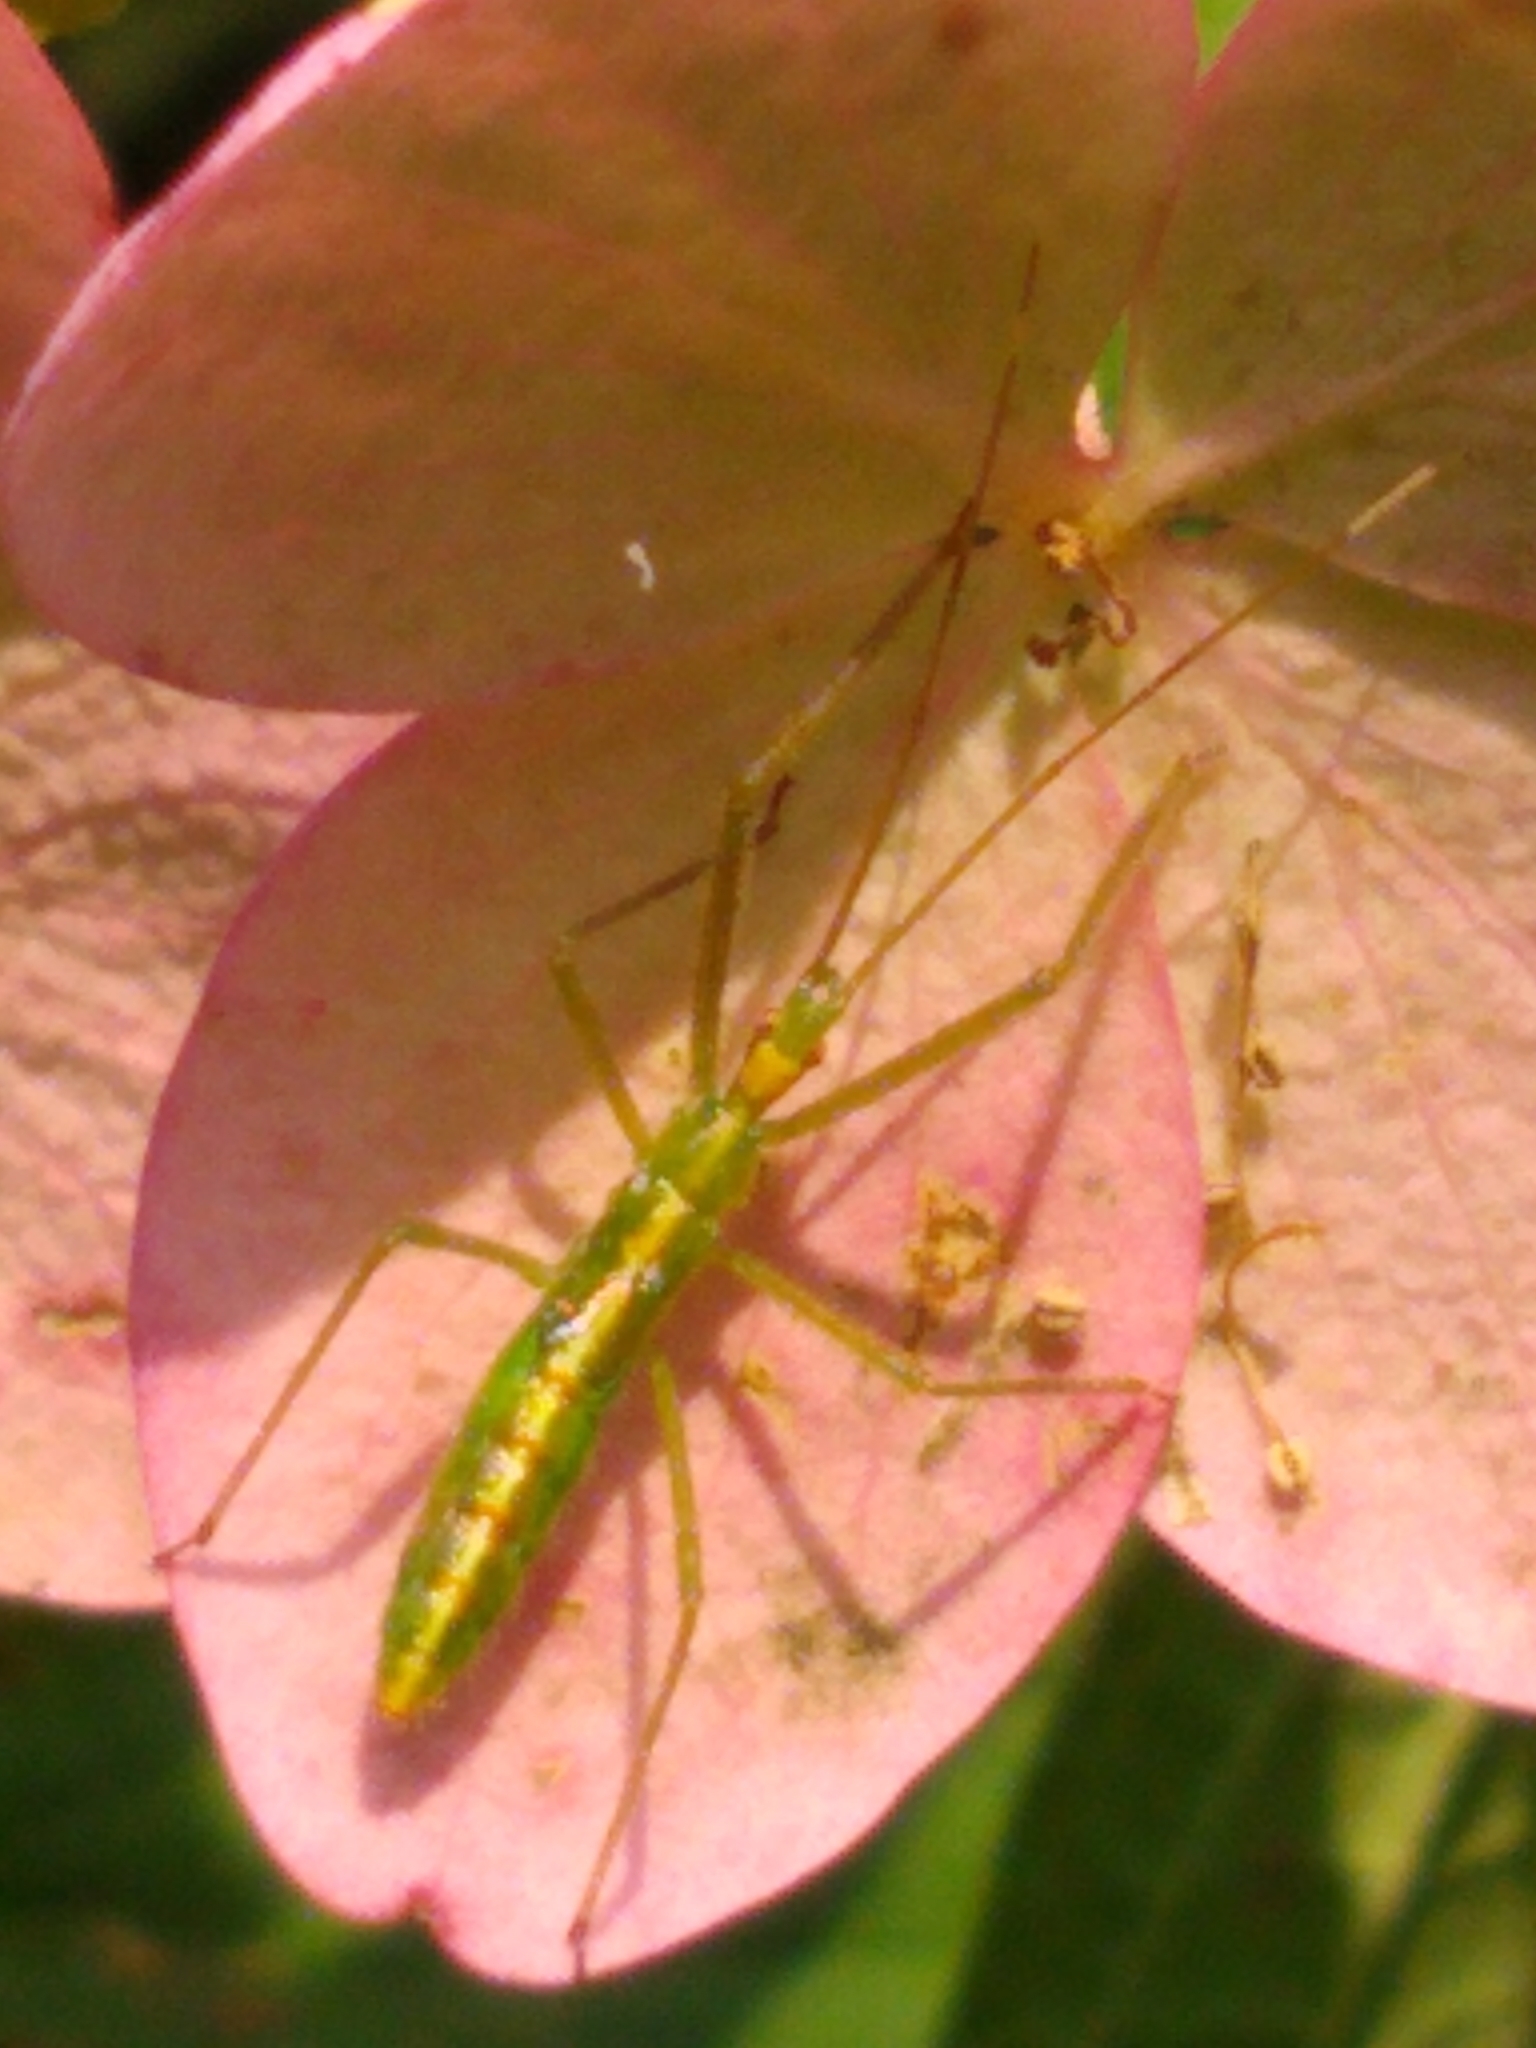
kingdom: Animalia
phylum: Arthropoda
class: Insecta
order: Hemiptera
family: Reduviidae
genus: Zelus
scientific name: Zelus luridus
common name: Pale green assassin bug
